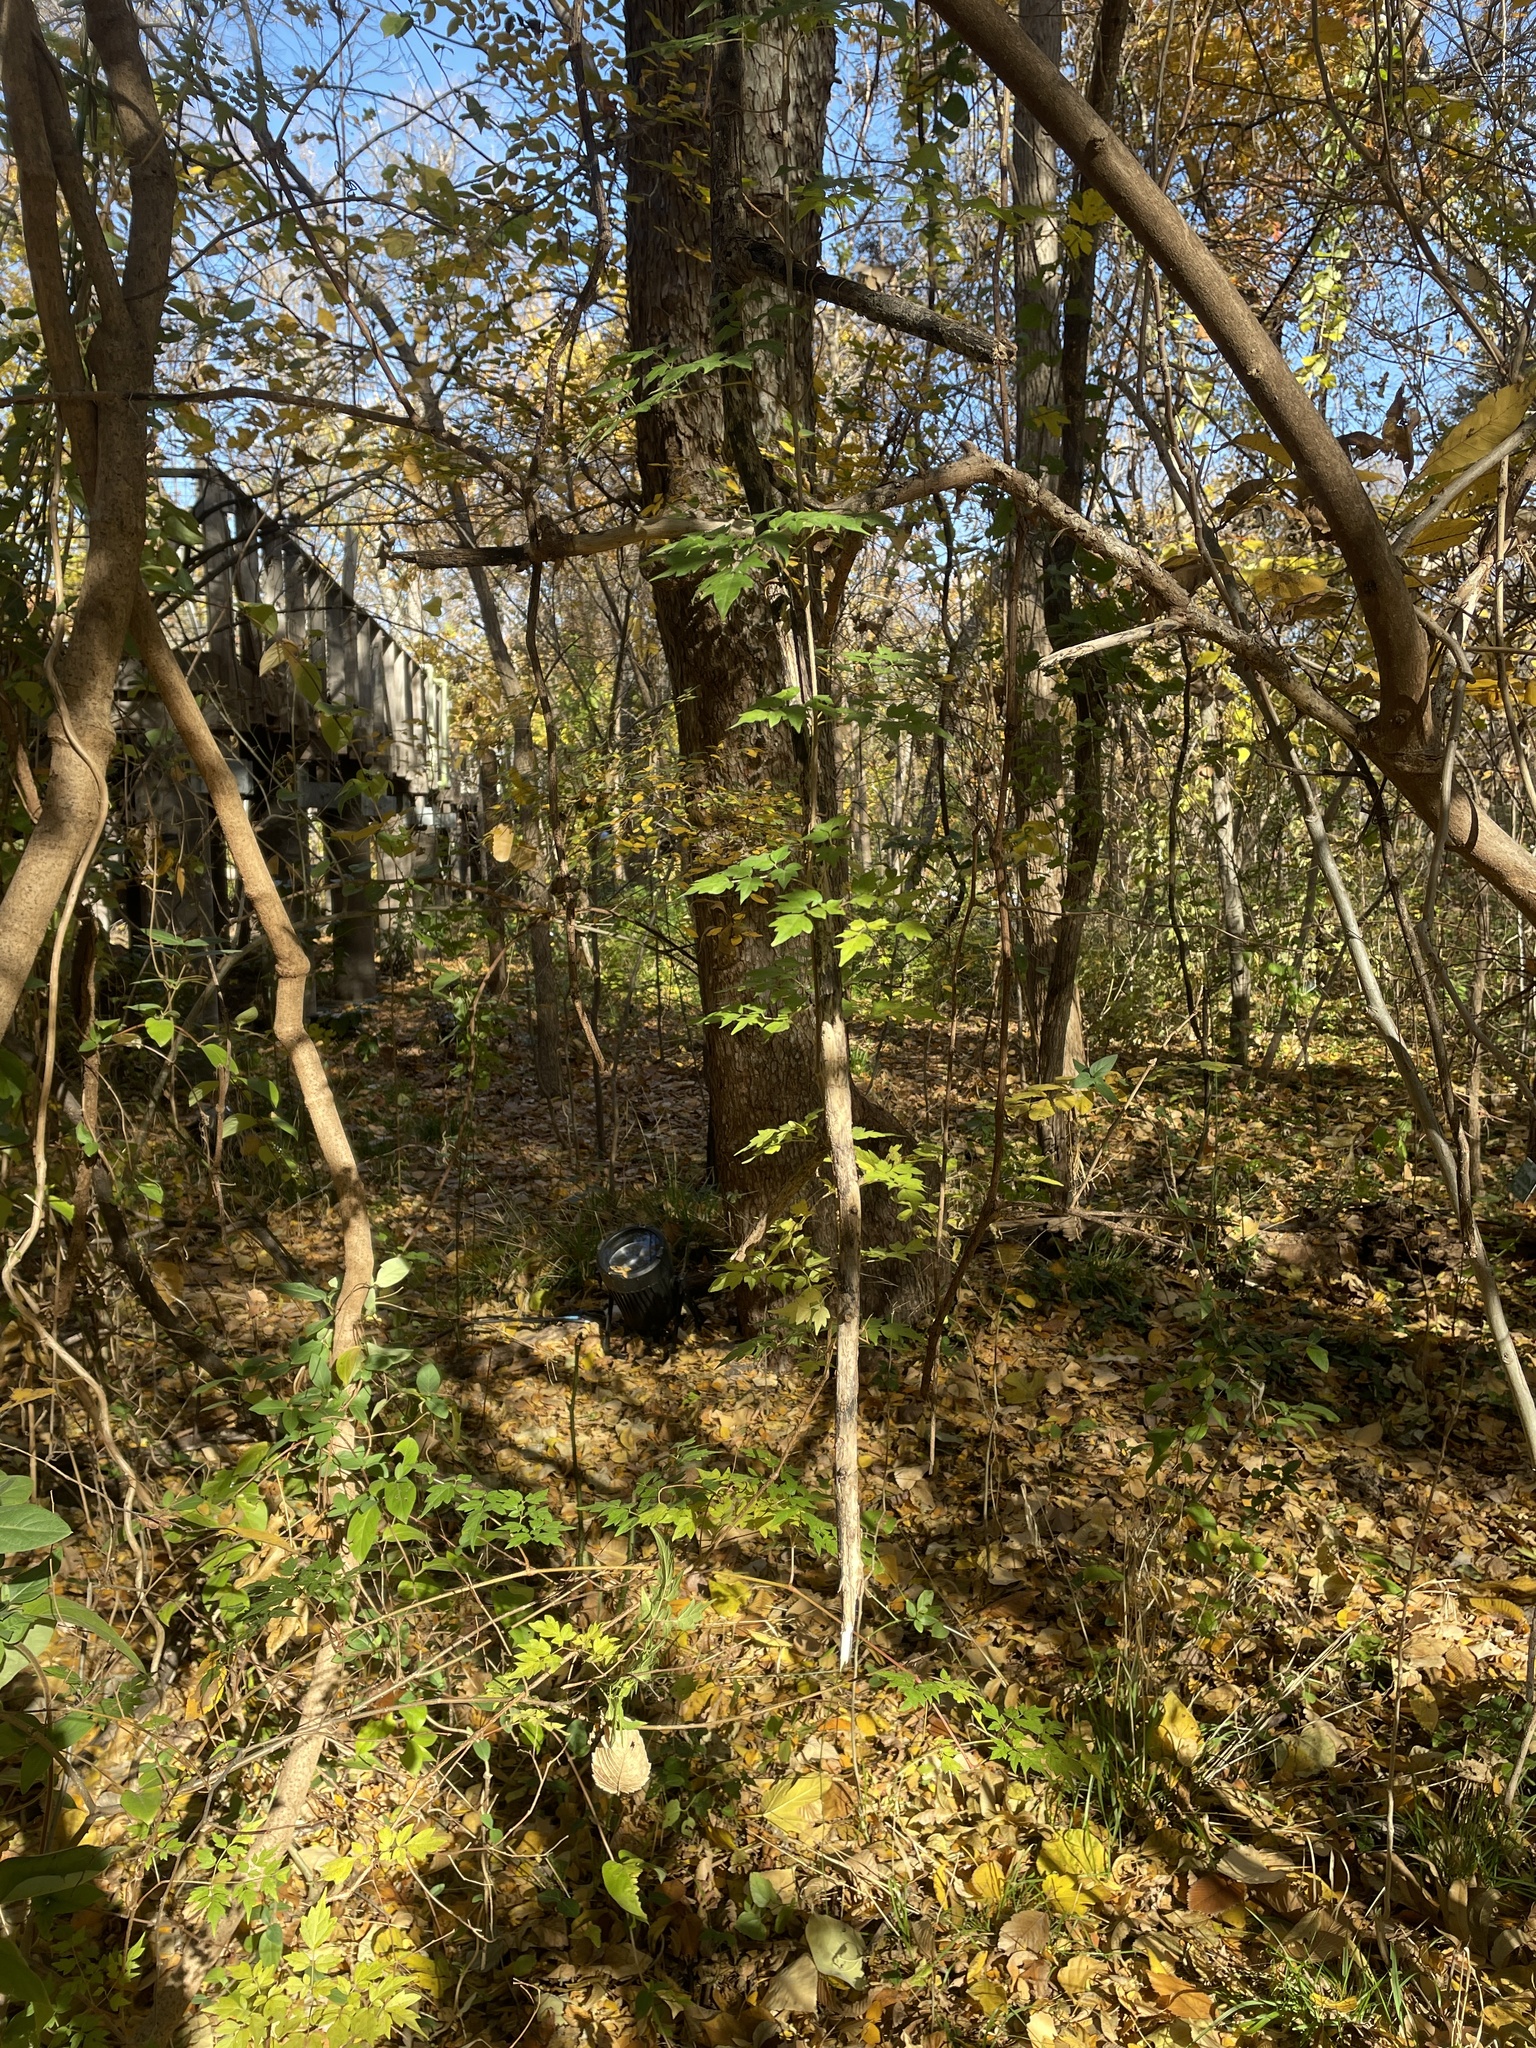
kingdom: Plantae
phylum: Tracheophyta
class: Magnoliopsida
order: Vitales
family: Vitaceae
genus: Nekemias
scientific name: Nekemias arborea
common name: Peppervine
